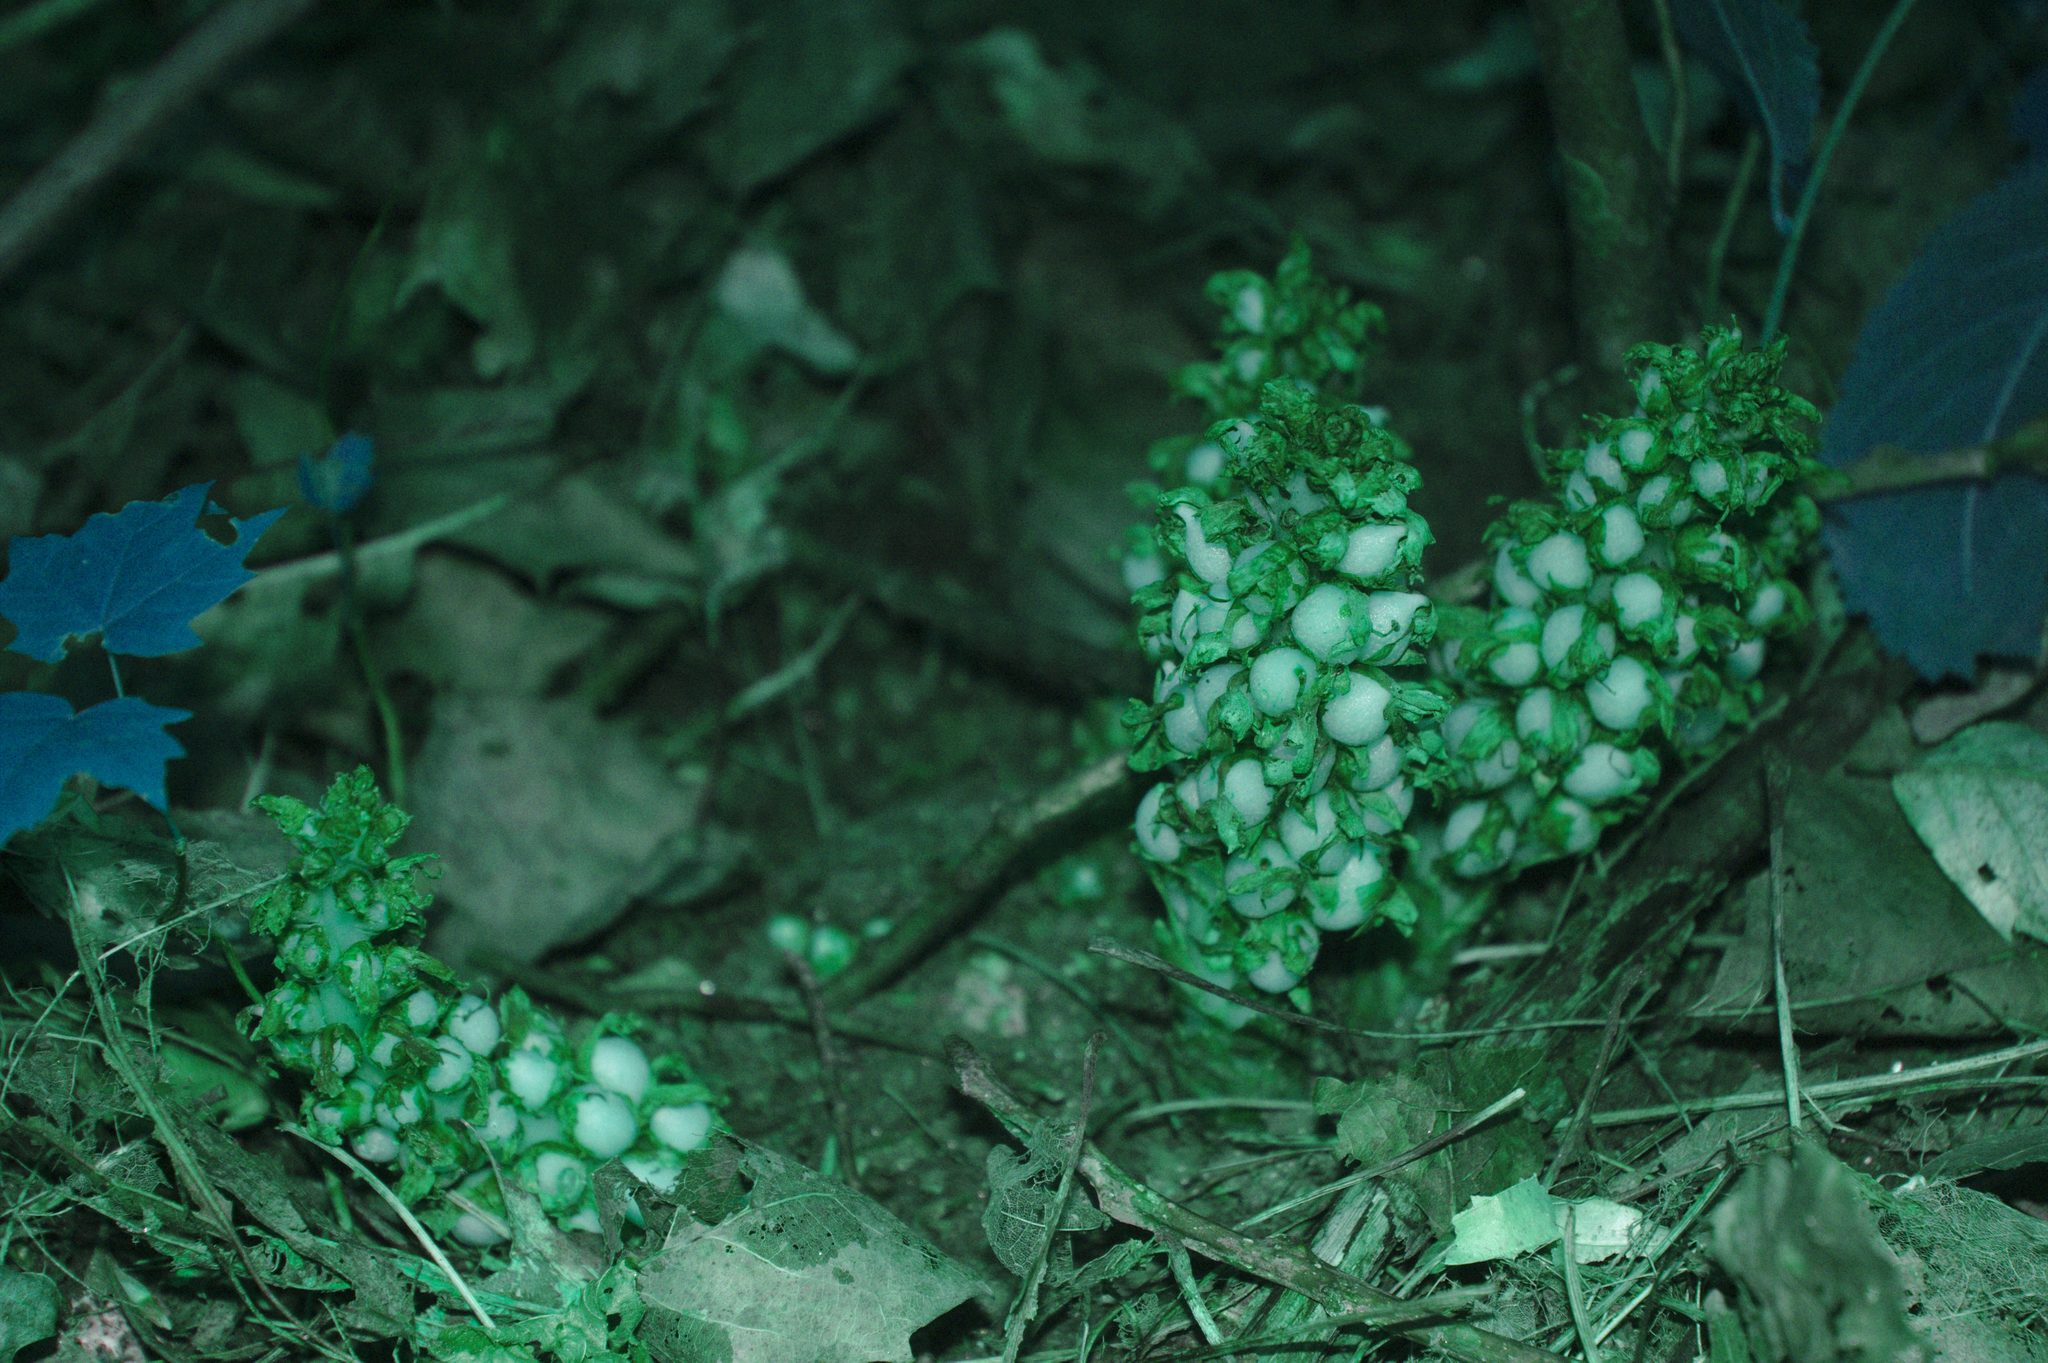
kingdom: Plantae
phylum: Tracheophyta
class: Magnoliopsida
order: Lamiales
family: Orobanchaceae
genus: Conopholis
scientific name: Conopholis americana
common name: American cancer-root
